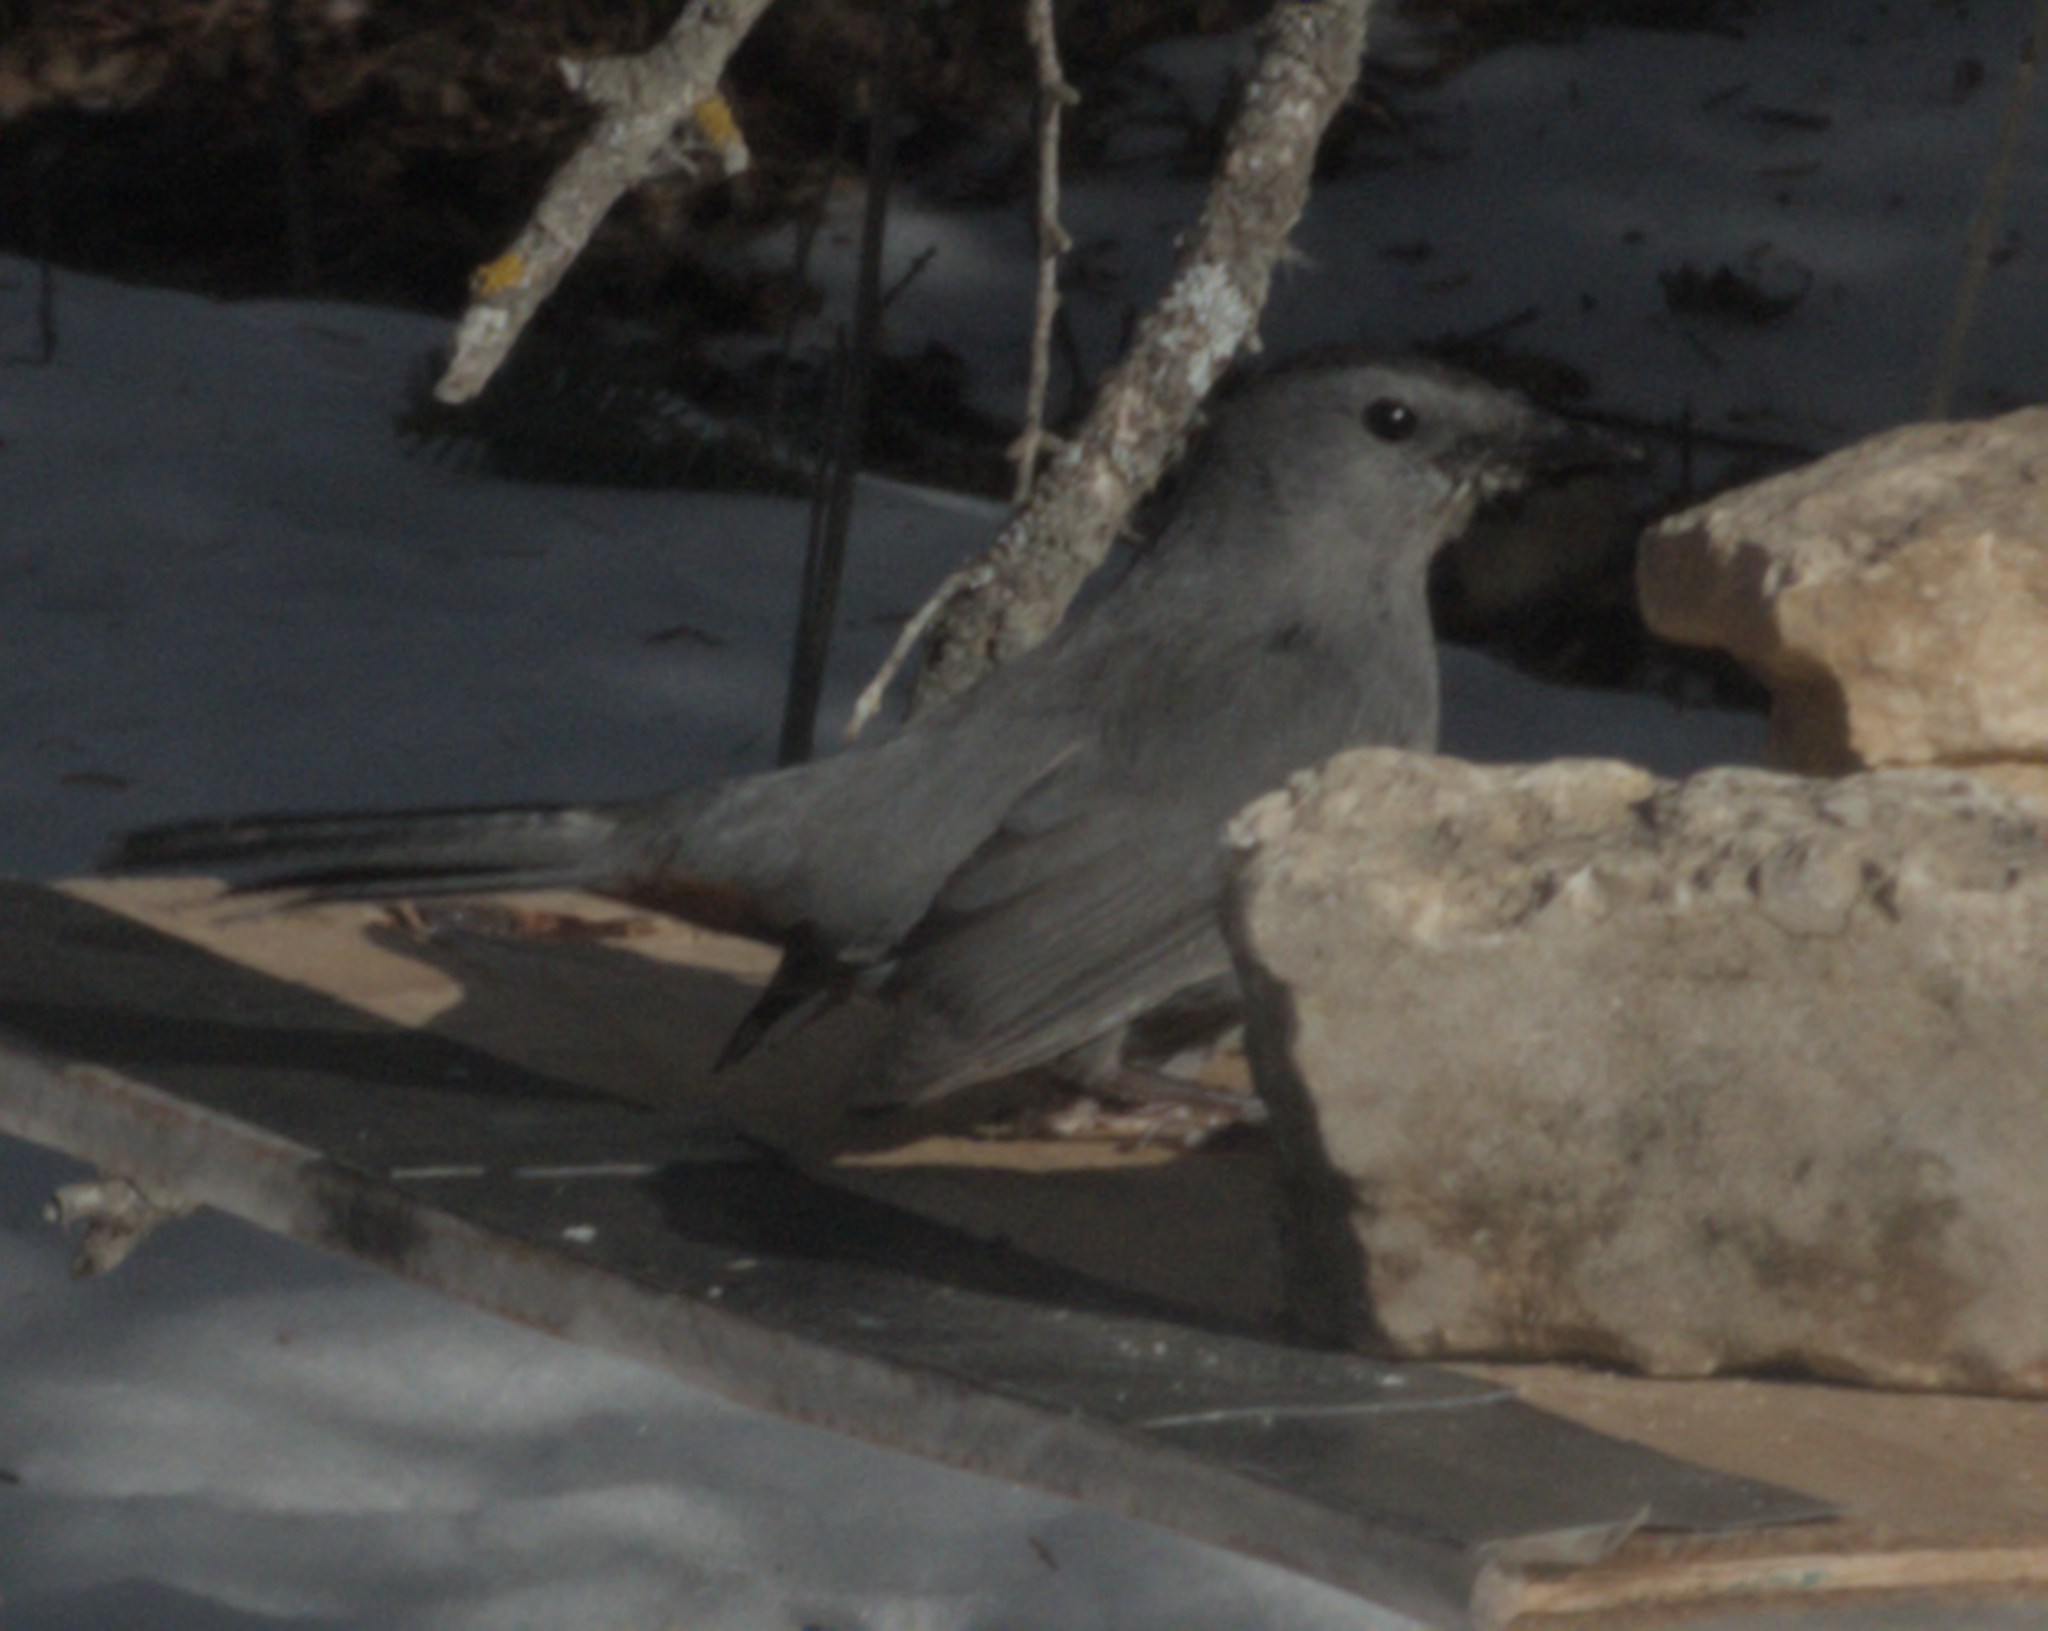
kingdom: Animalia
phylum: Chordata
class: Aves
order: Passeriformes
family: Mimidae
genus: Dumetella
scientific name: Dumetella carolinensis
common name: Gray catbird
